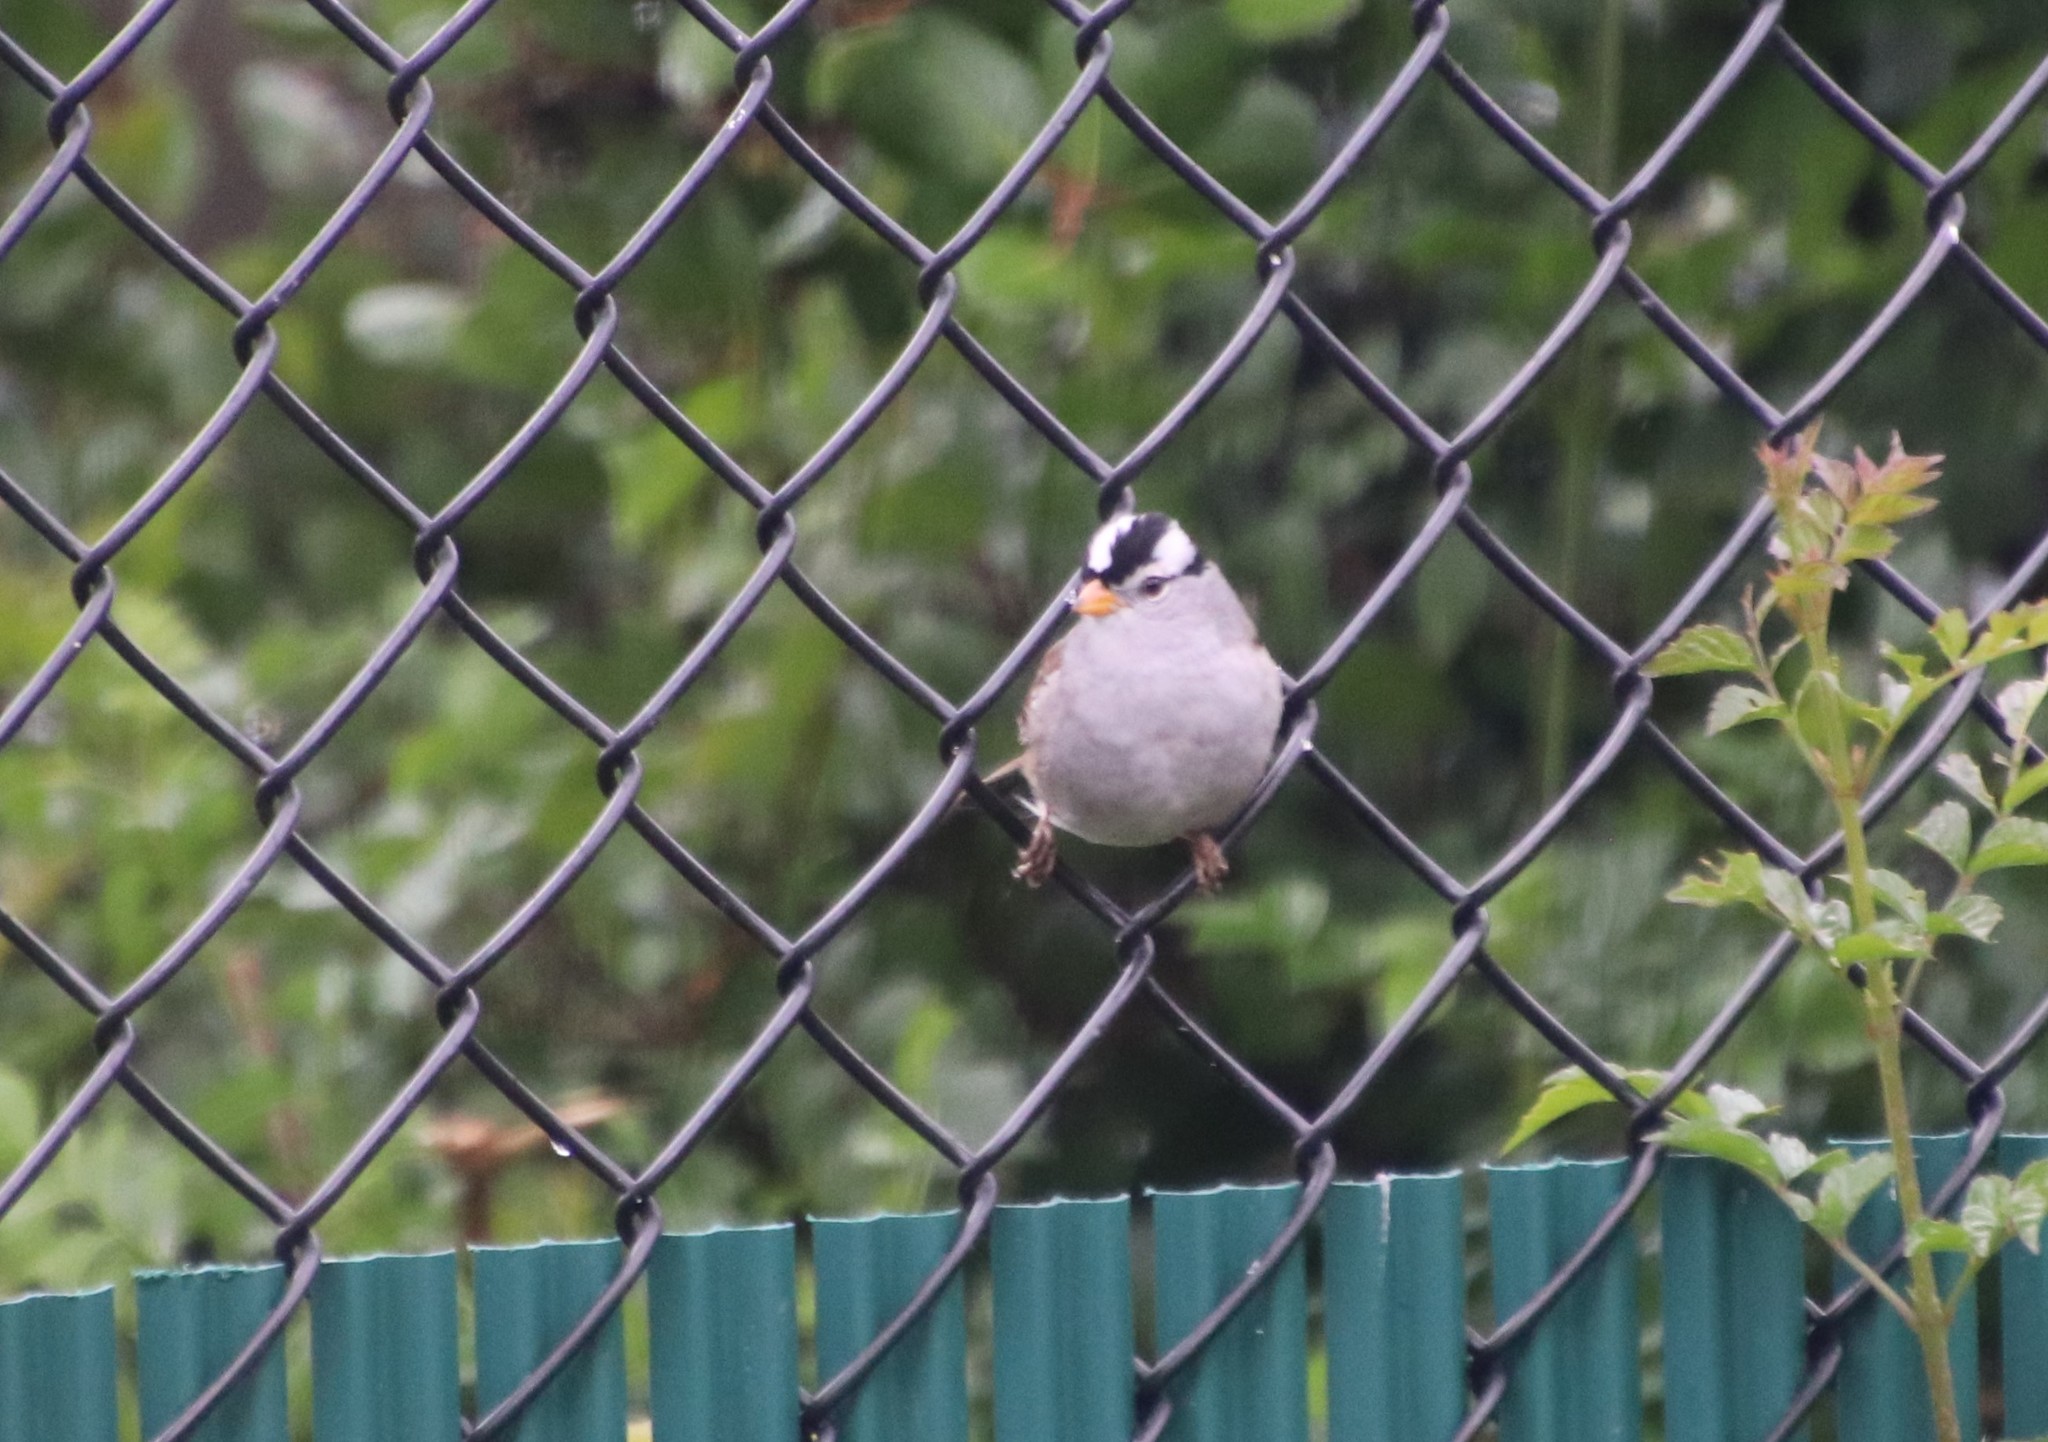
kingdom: Animalia
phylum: Chordata
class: Aves
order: Passeriformes
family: Passerellidae
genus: Zonotrichia
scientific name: Zonotrichia leucophrys
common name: White-crowned sparrow
